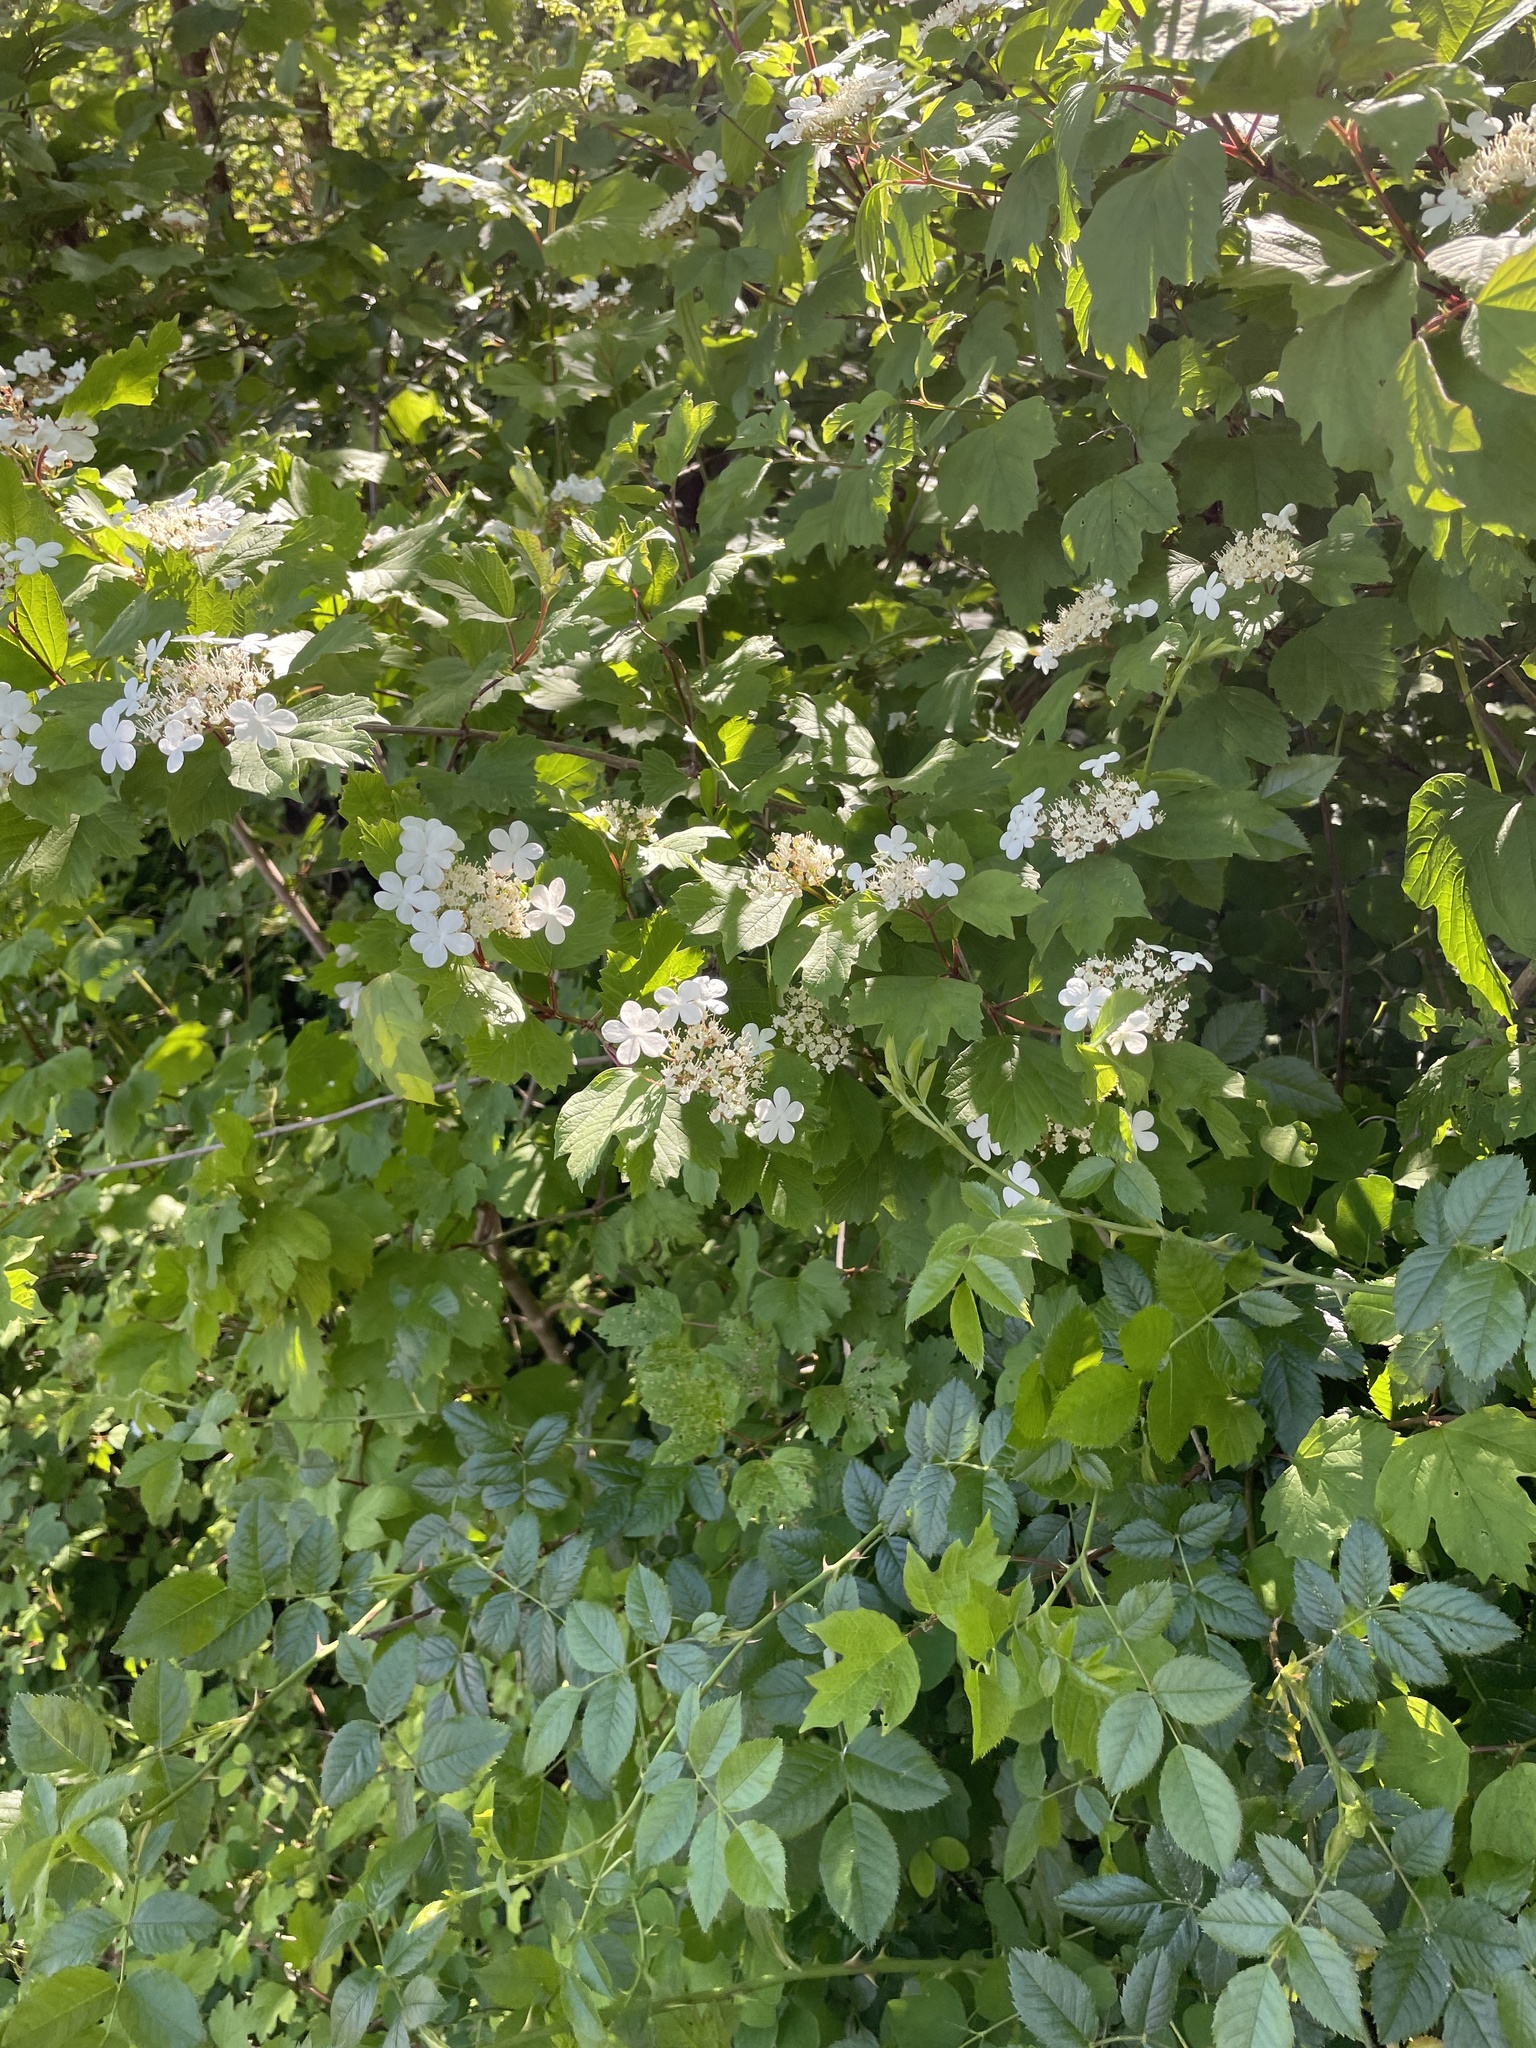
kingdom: Plantae
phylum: Tracheophyta
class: Magnoliopsida
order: Dipsacales
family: Viburnaceae
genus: Viburnum
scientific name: Viburnum opulus
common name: Guelder-rose
